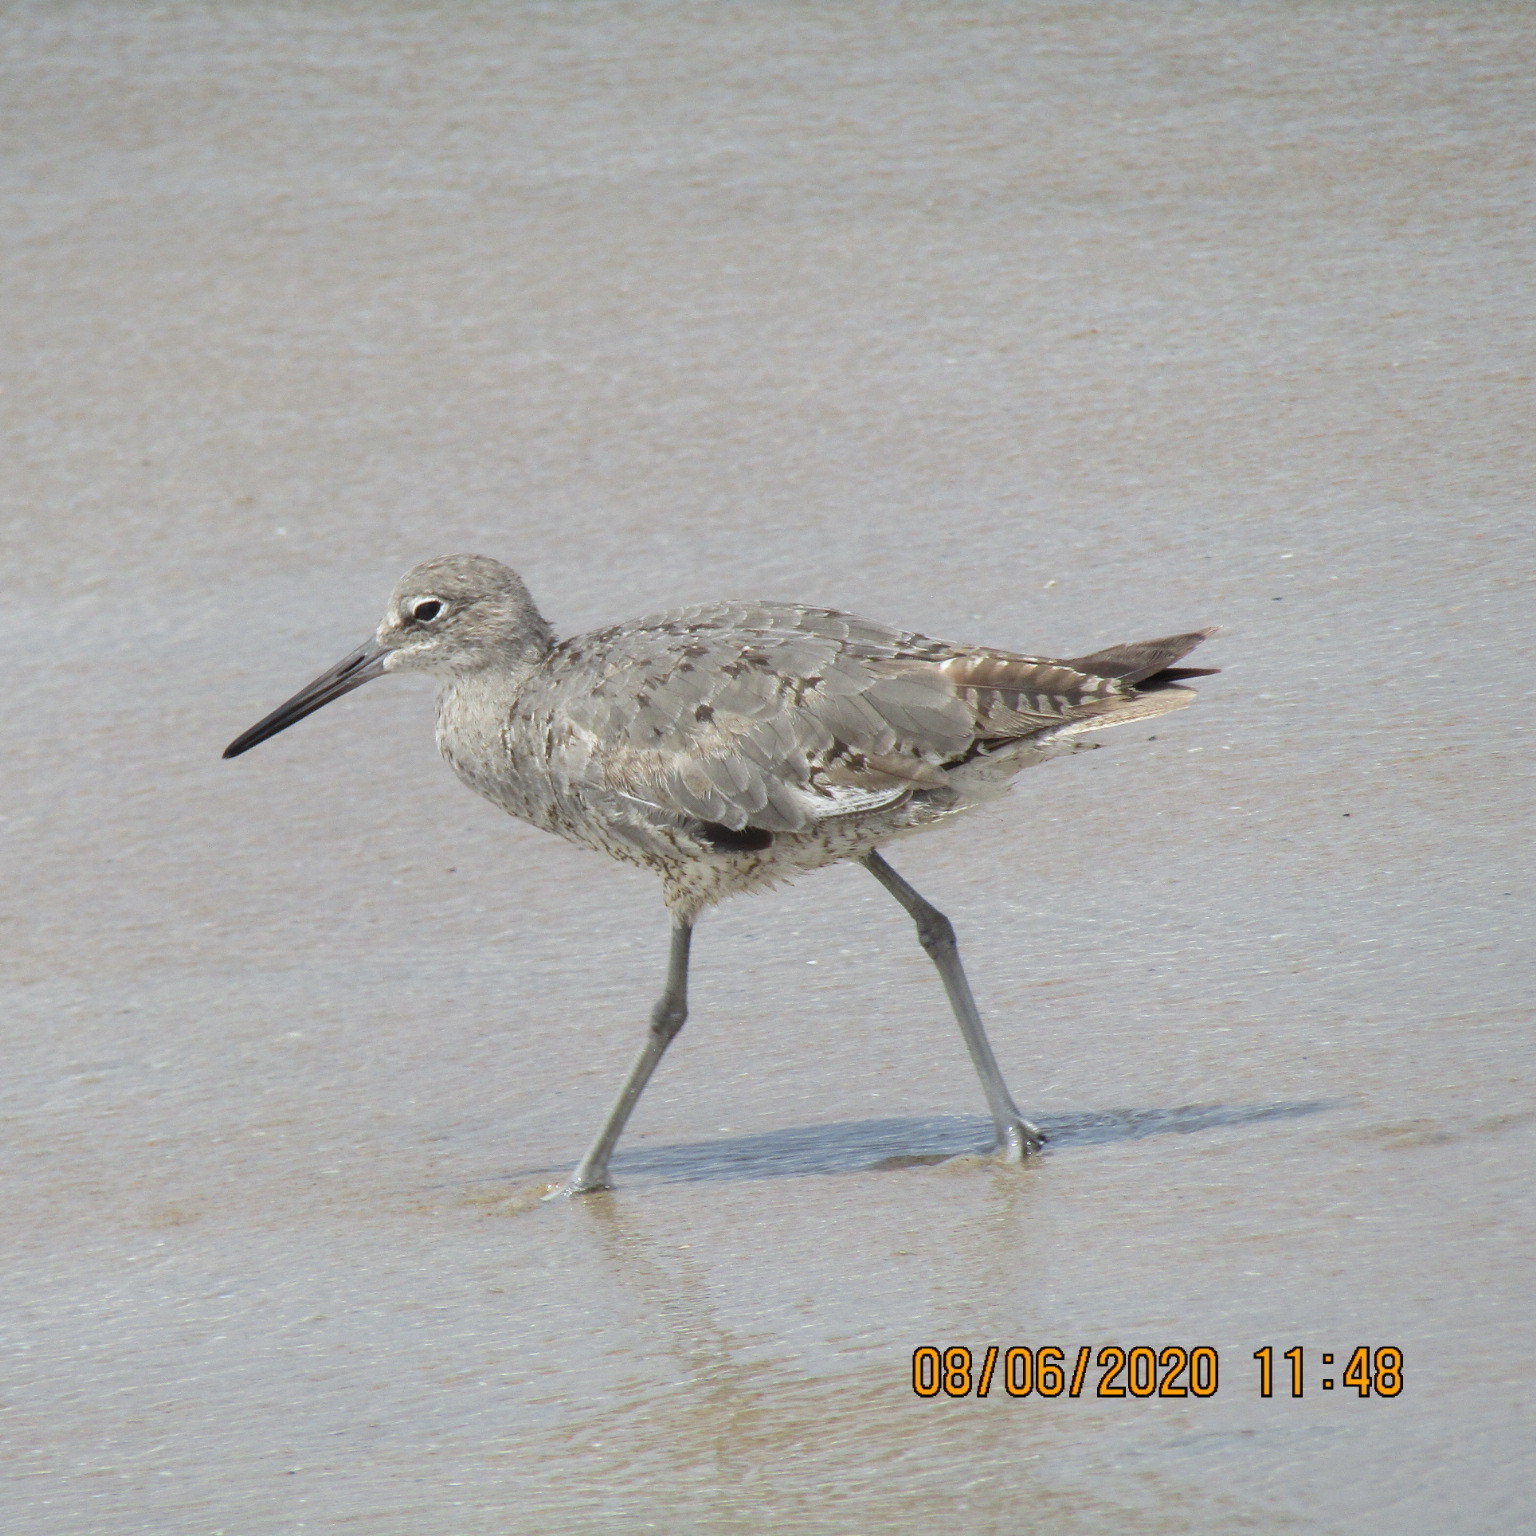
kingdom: Animalia
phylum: Chordata
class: Aves
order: Charadriiformes
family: Scolopacidae
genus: Tringa
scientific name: Tringa semipalmata
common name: Willet
